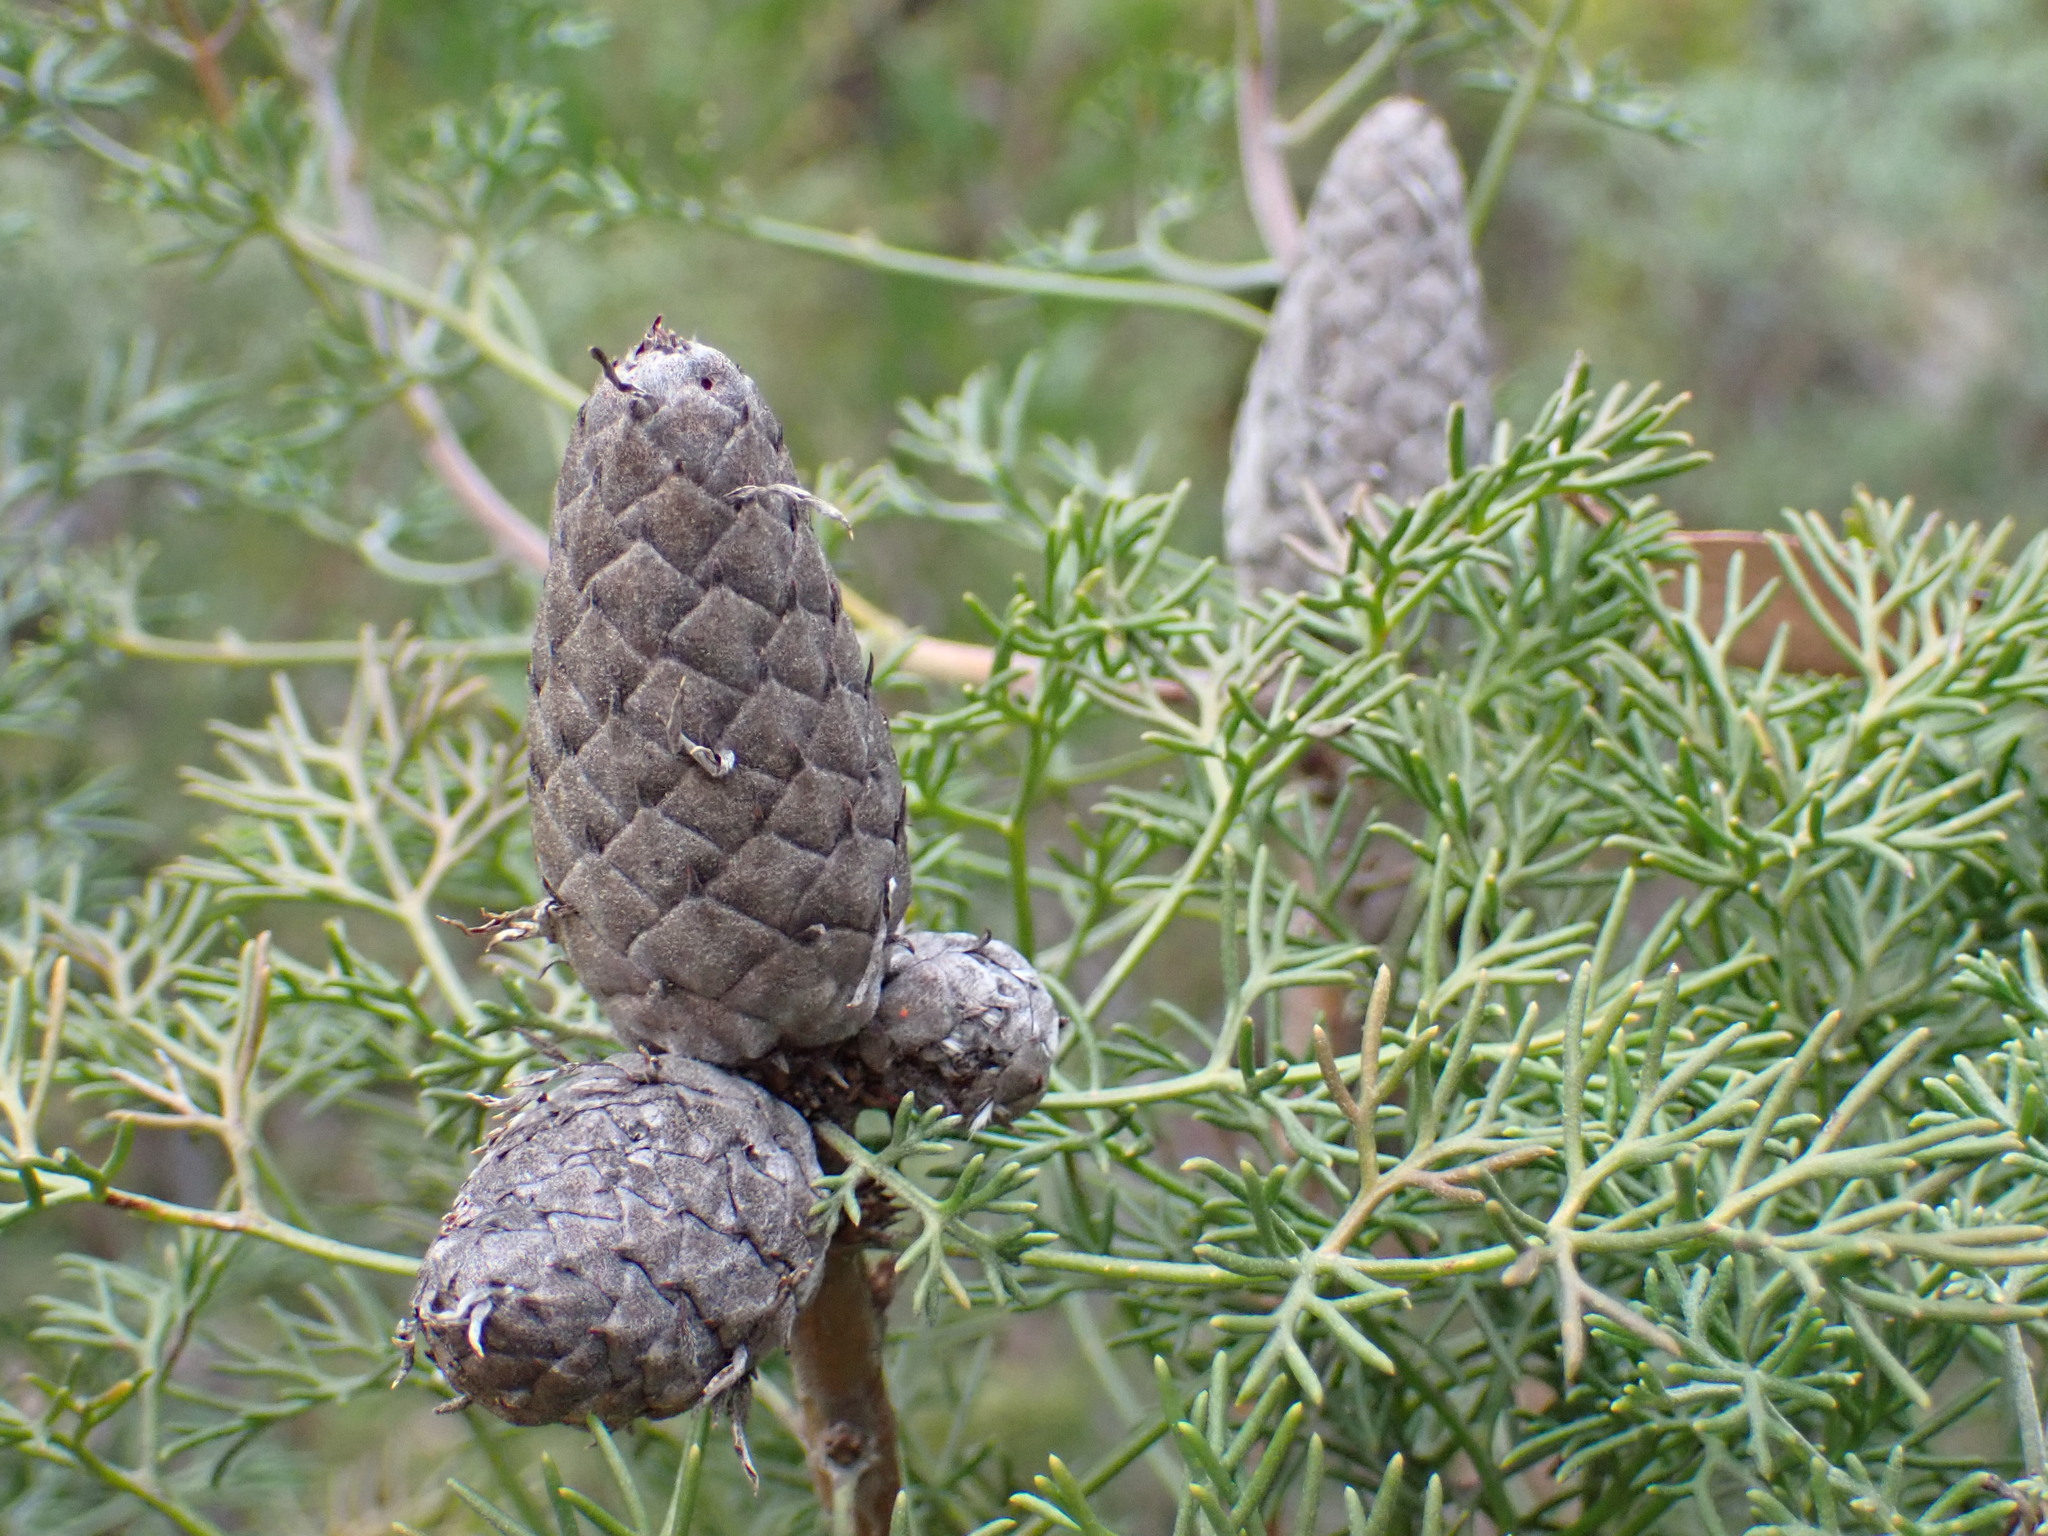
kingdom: Plantae
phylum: Tracheophyta
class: Magnoliopsida
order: Proteales
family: Proteaceae
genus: Petrophile
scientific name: Petrophile canescens
